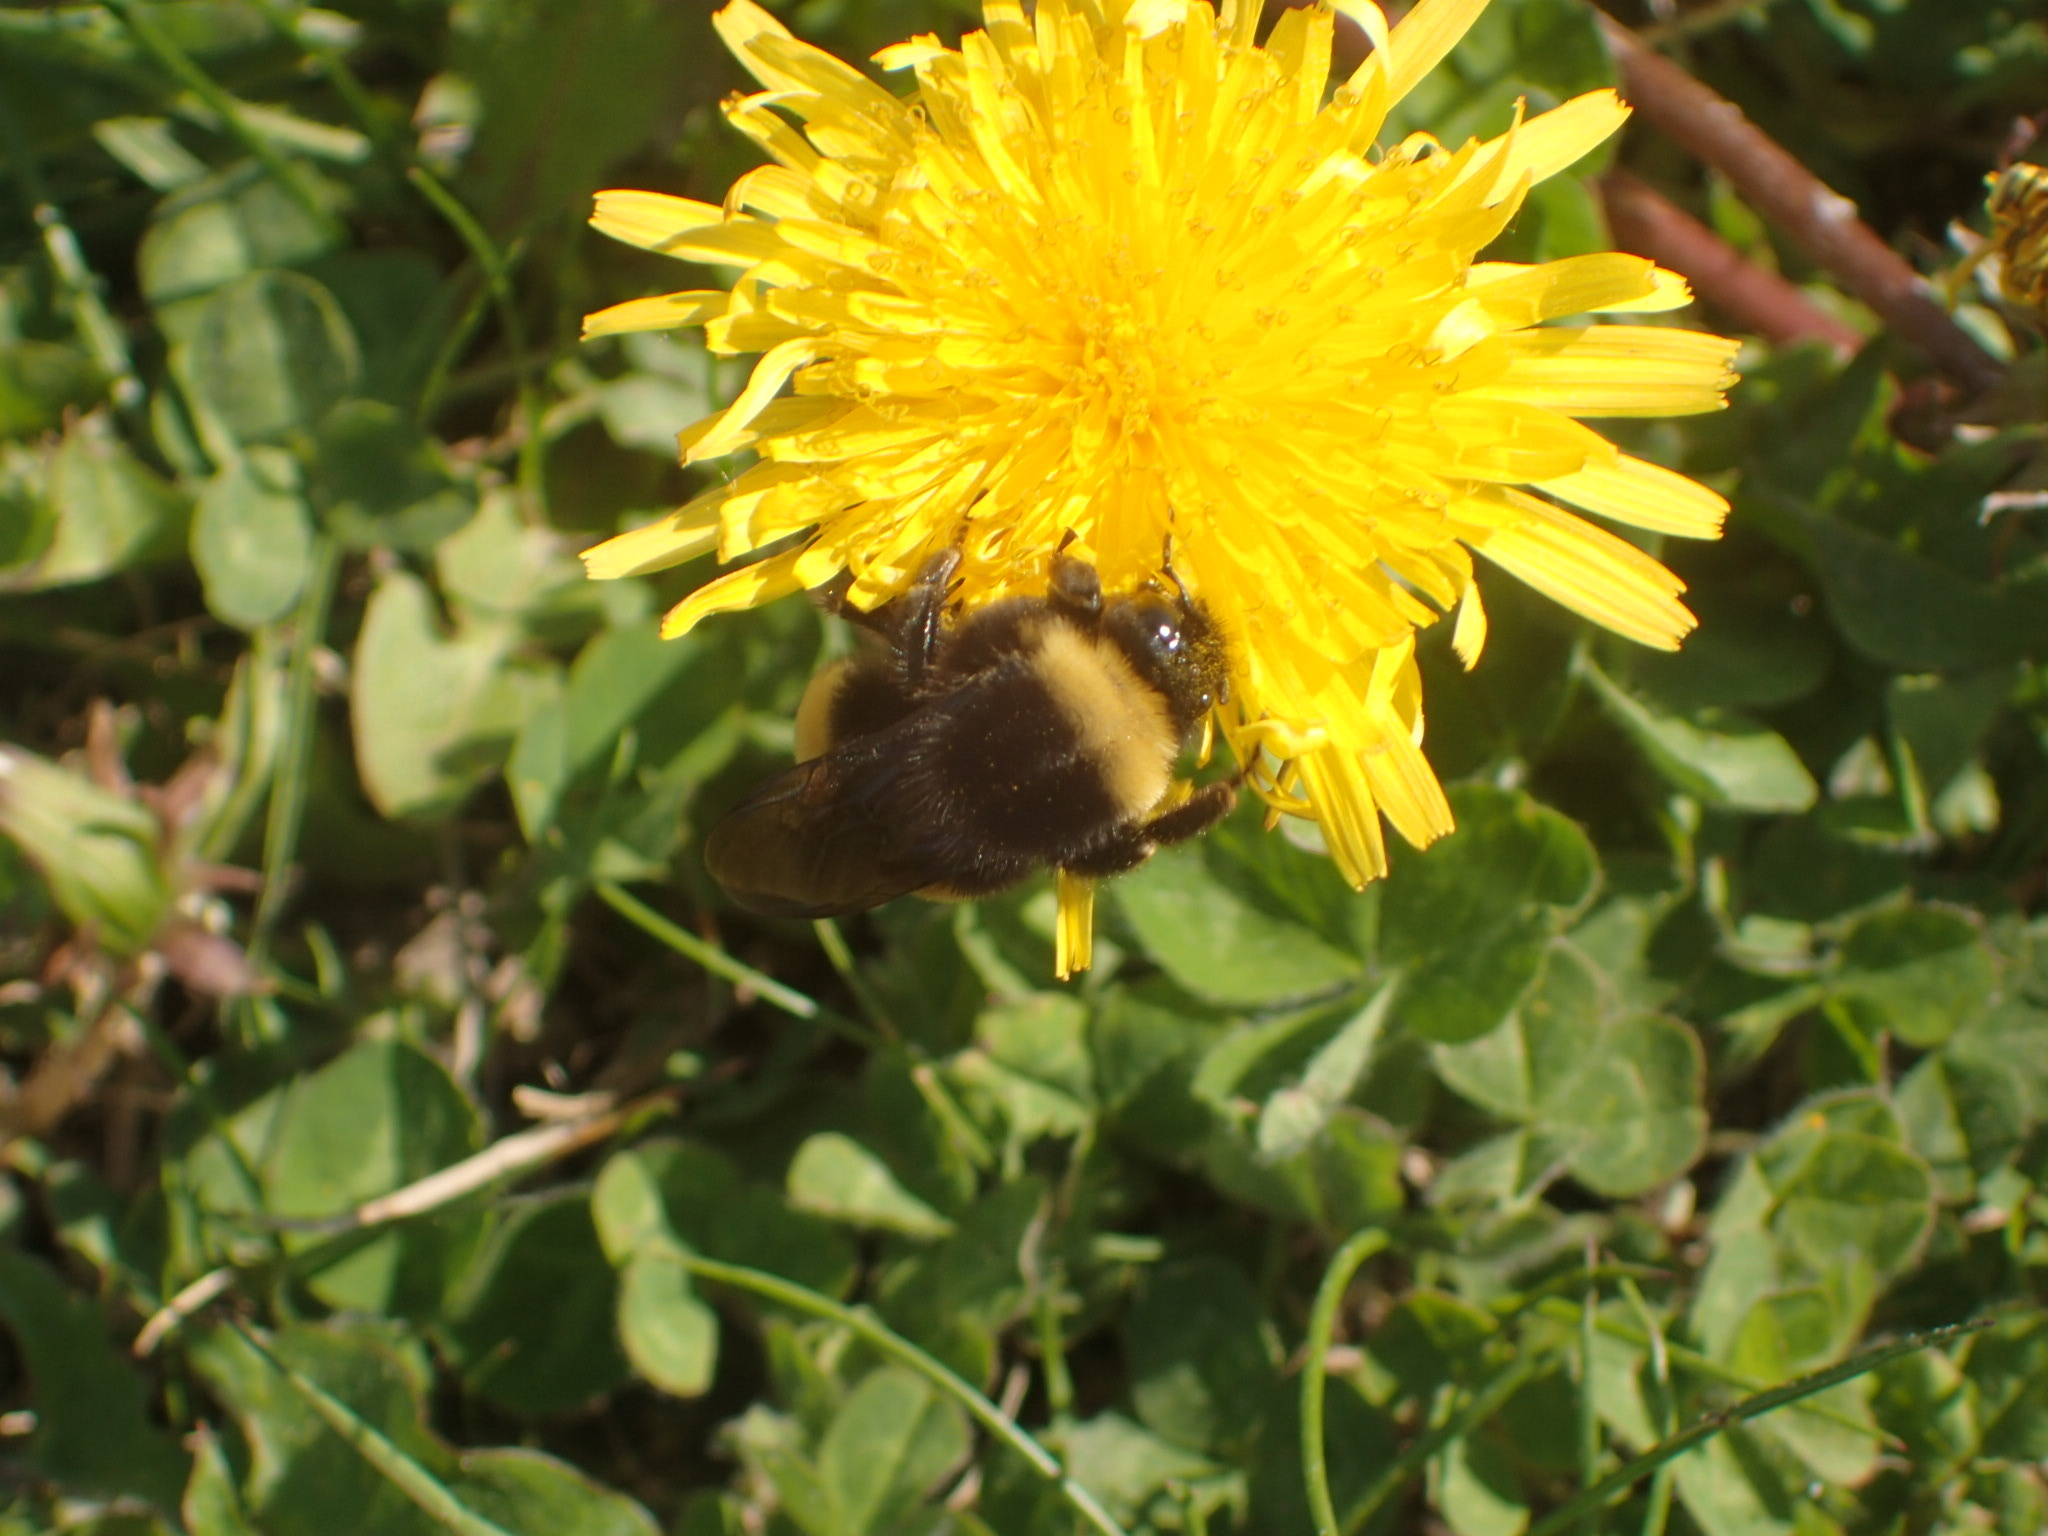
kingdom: Animalia
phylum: Arthropoda
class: Insecta
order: Hymenoptera
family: Apidae
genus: Bombus
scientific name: Bombus terricola
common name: Yellow-banded bumble bee
